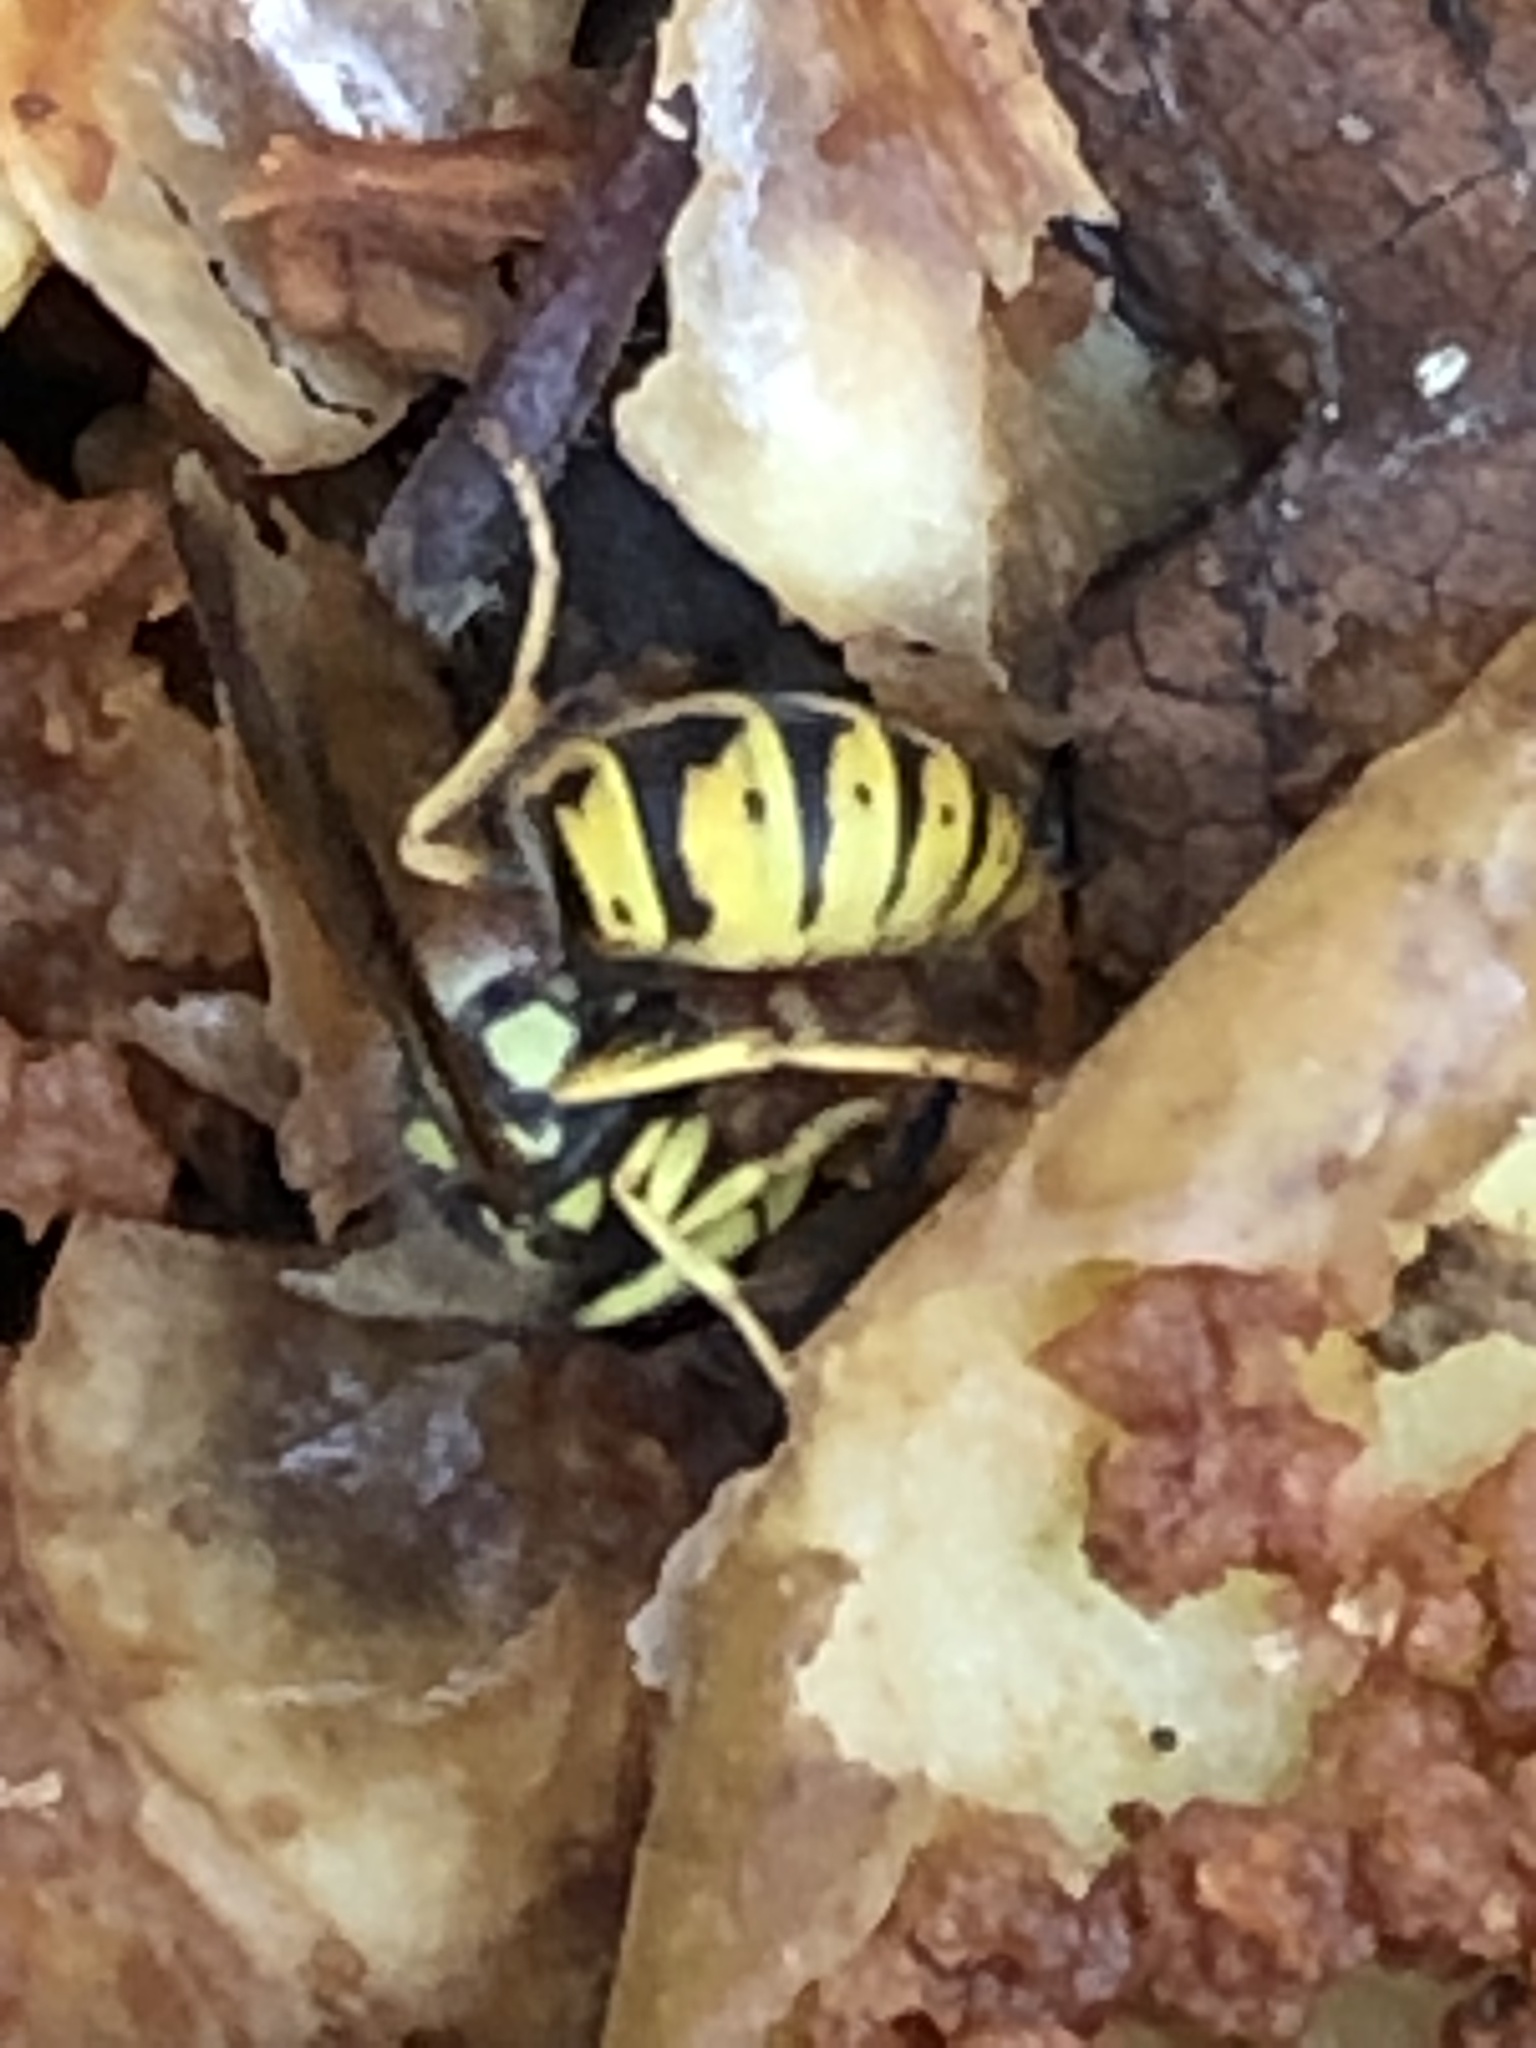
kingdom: Animalia
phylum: Arthropoda
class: Insecta
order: Hymenoptera
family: Vespidae
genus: Vespula
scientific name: Vespula germanica
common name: German wasp
